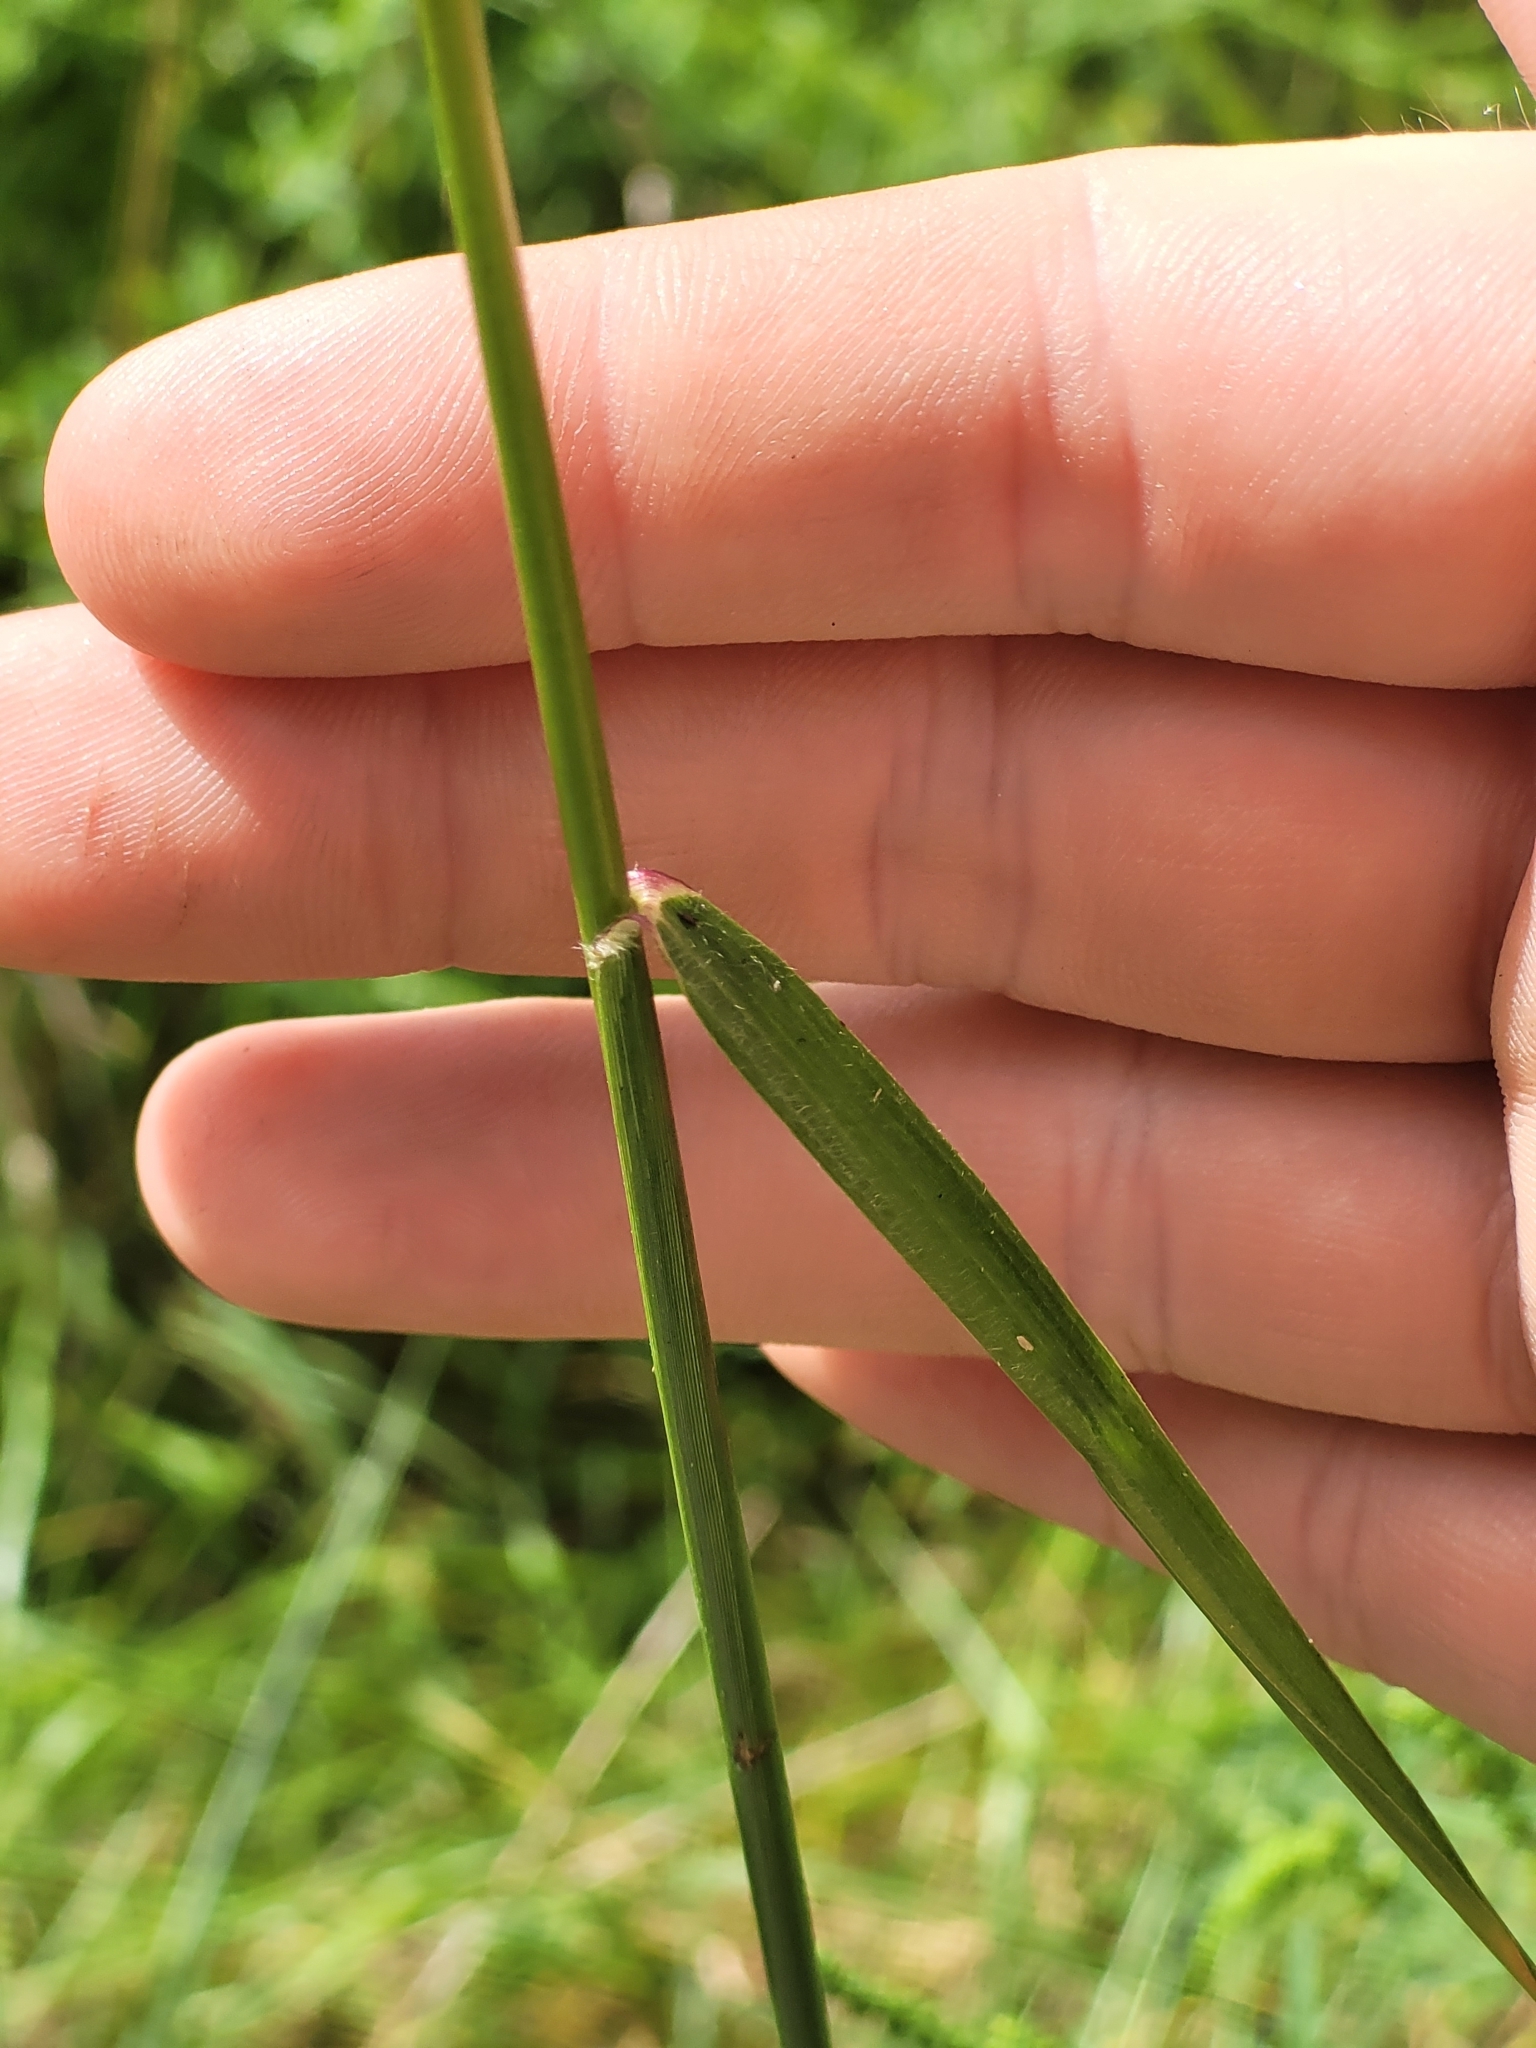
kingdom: Plantae
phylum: Tracheophyta
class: Liliopsida
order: Poales
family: Poaceae
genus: Tridens
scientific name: Tridens flavus
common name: Purpletop
